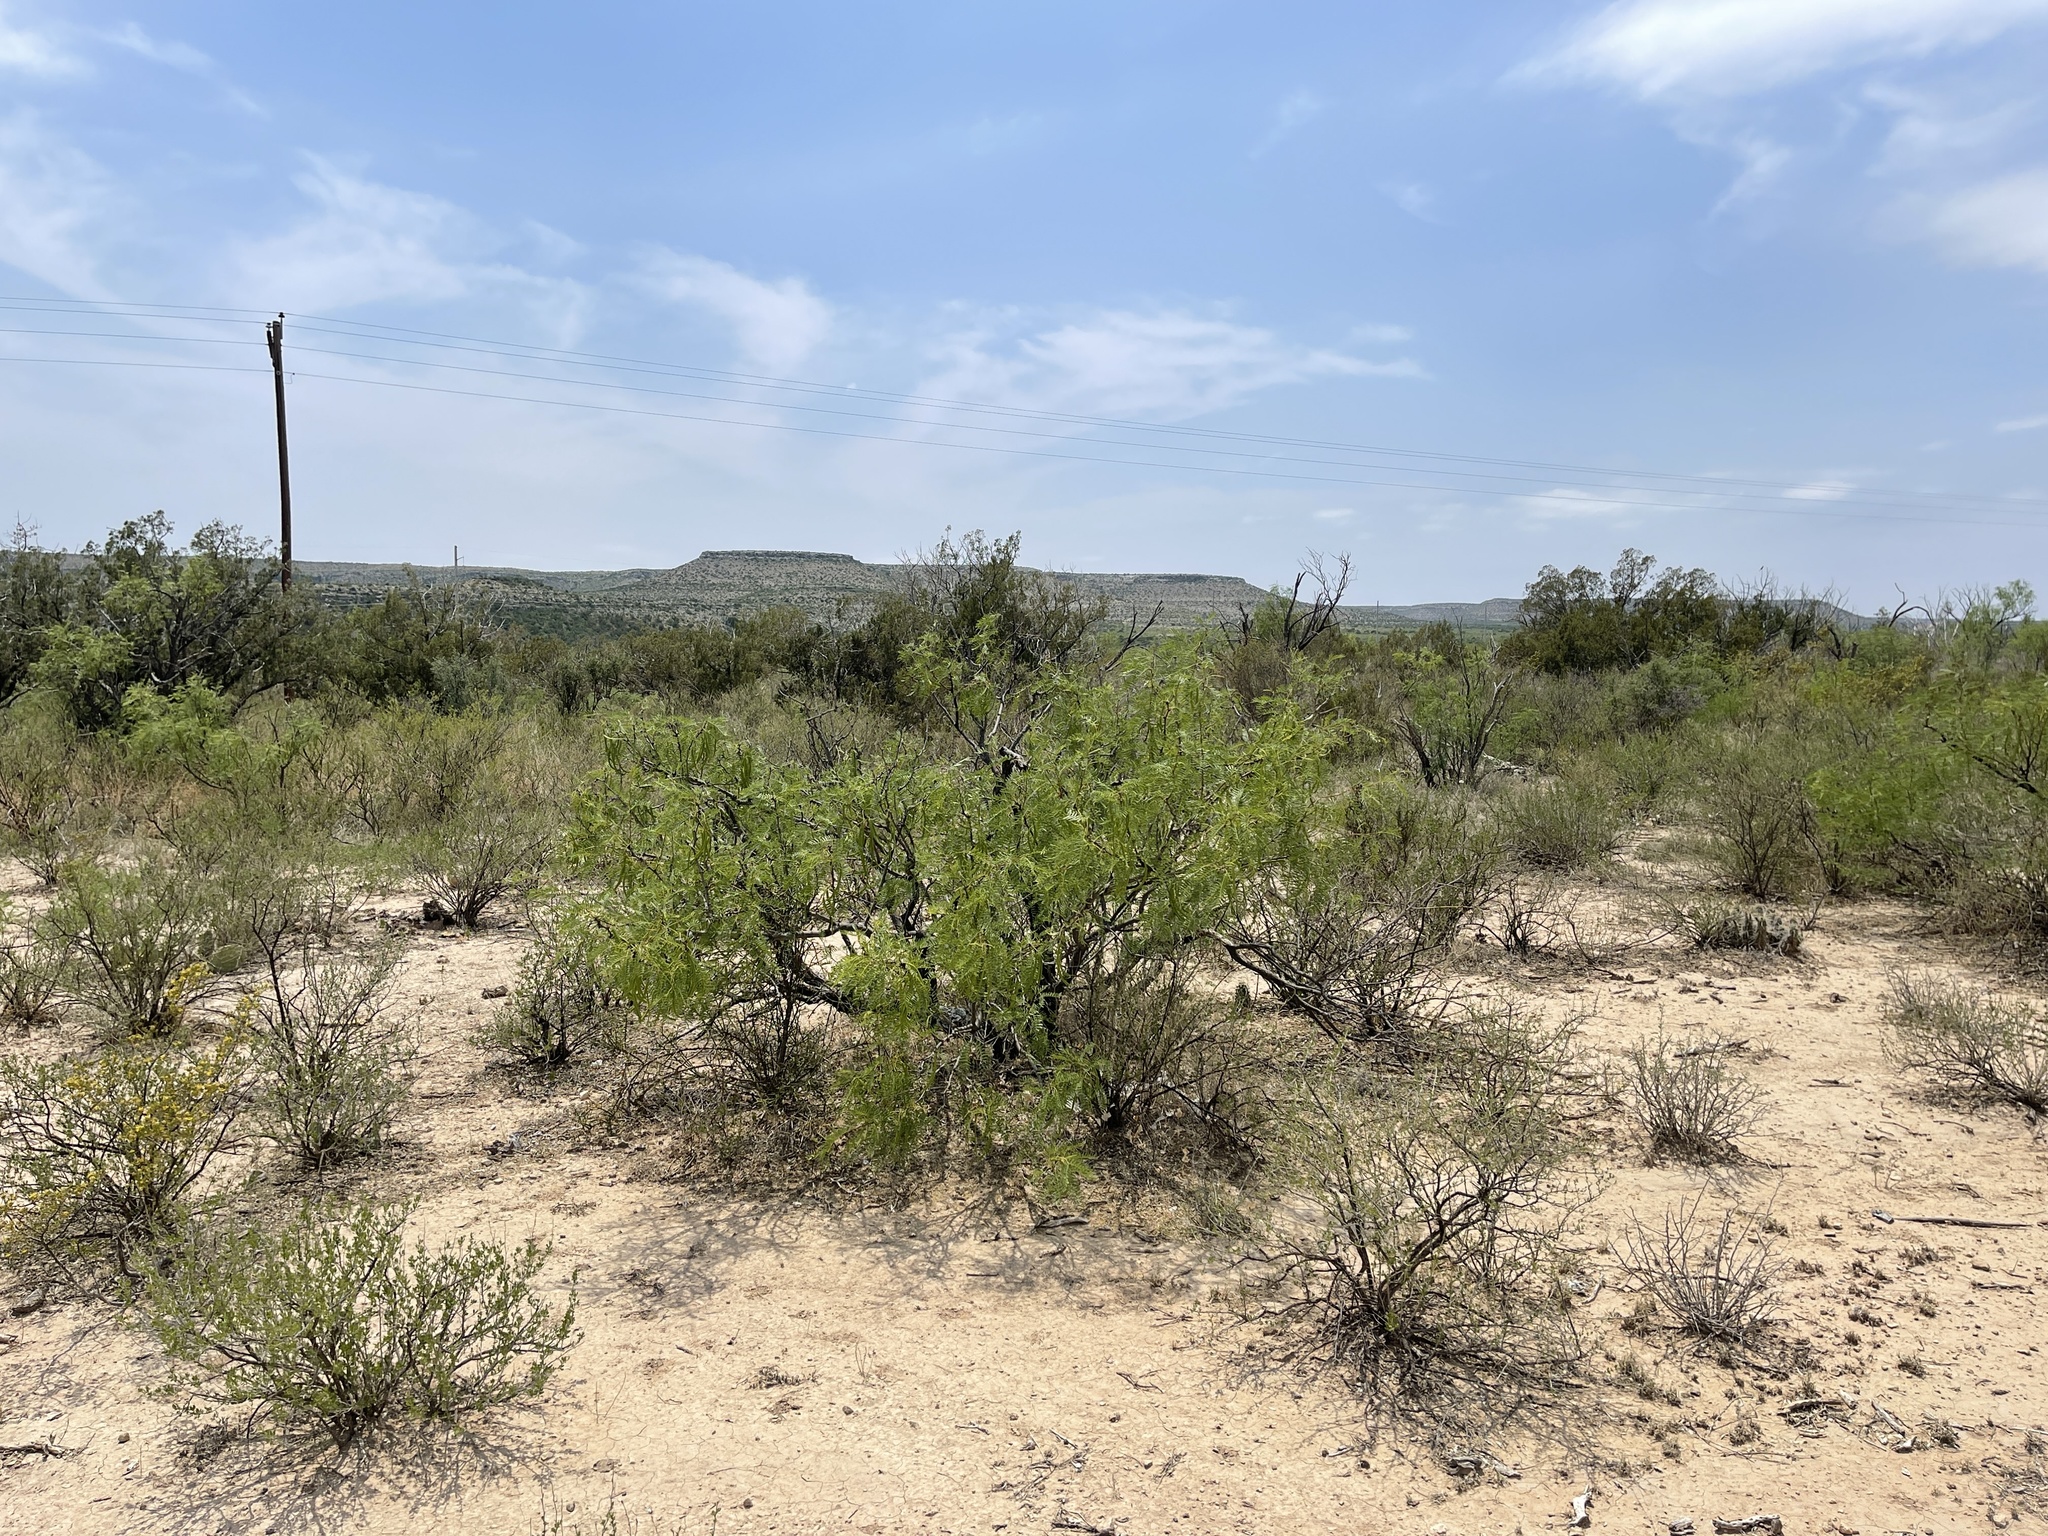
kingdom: Plantae
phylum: Tracheophyta
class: Magnoliopsida
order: Fabales
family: Fabaceae
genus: Prosopis
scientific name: Prosopis glandulosa
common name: Honey mesquite
